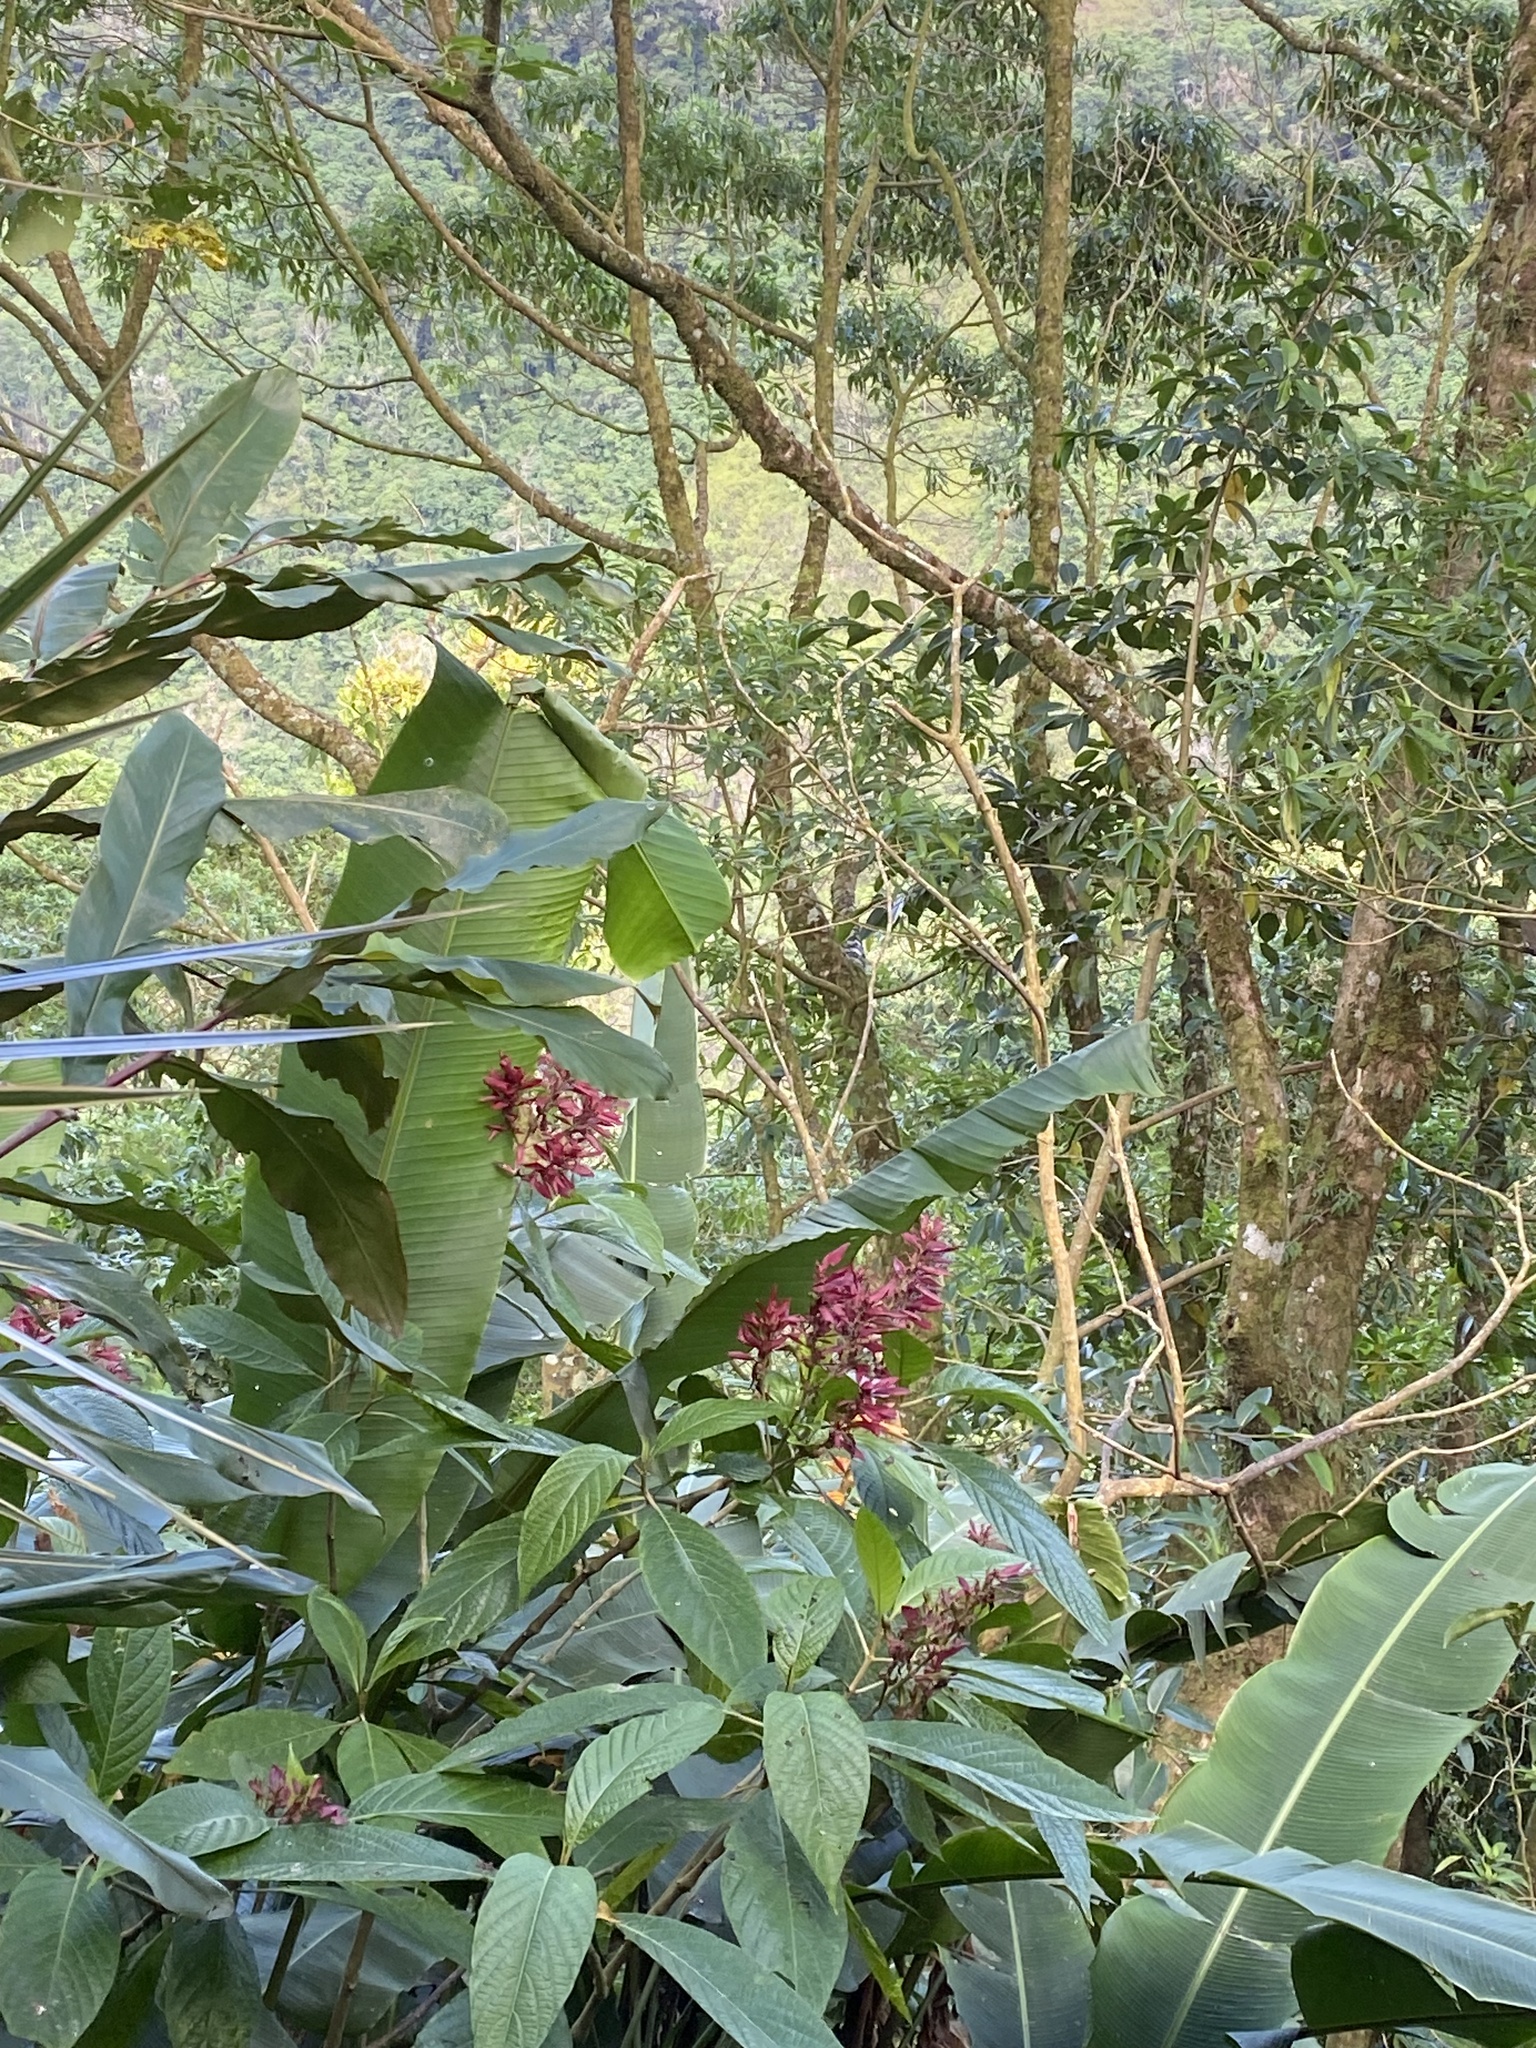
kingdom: Plantae
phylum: Tracheophyta
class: Magnoliopsida
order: Lamiales
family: Acanthaceae
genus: Megaskepasma
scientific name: Megaskepasma erythrochlamys
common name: Brazilian red-cloak
